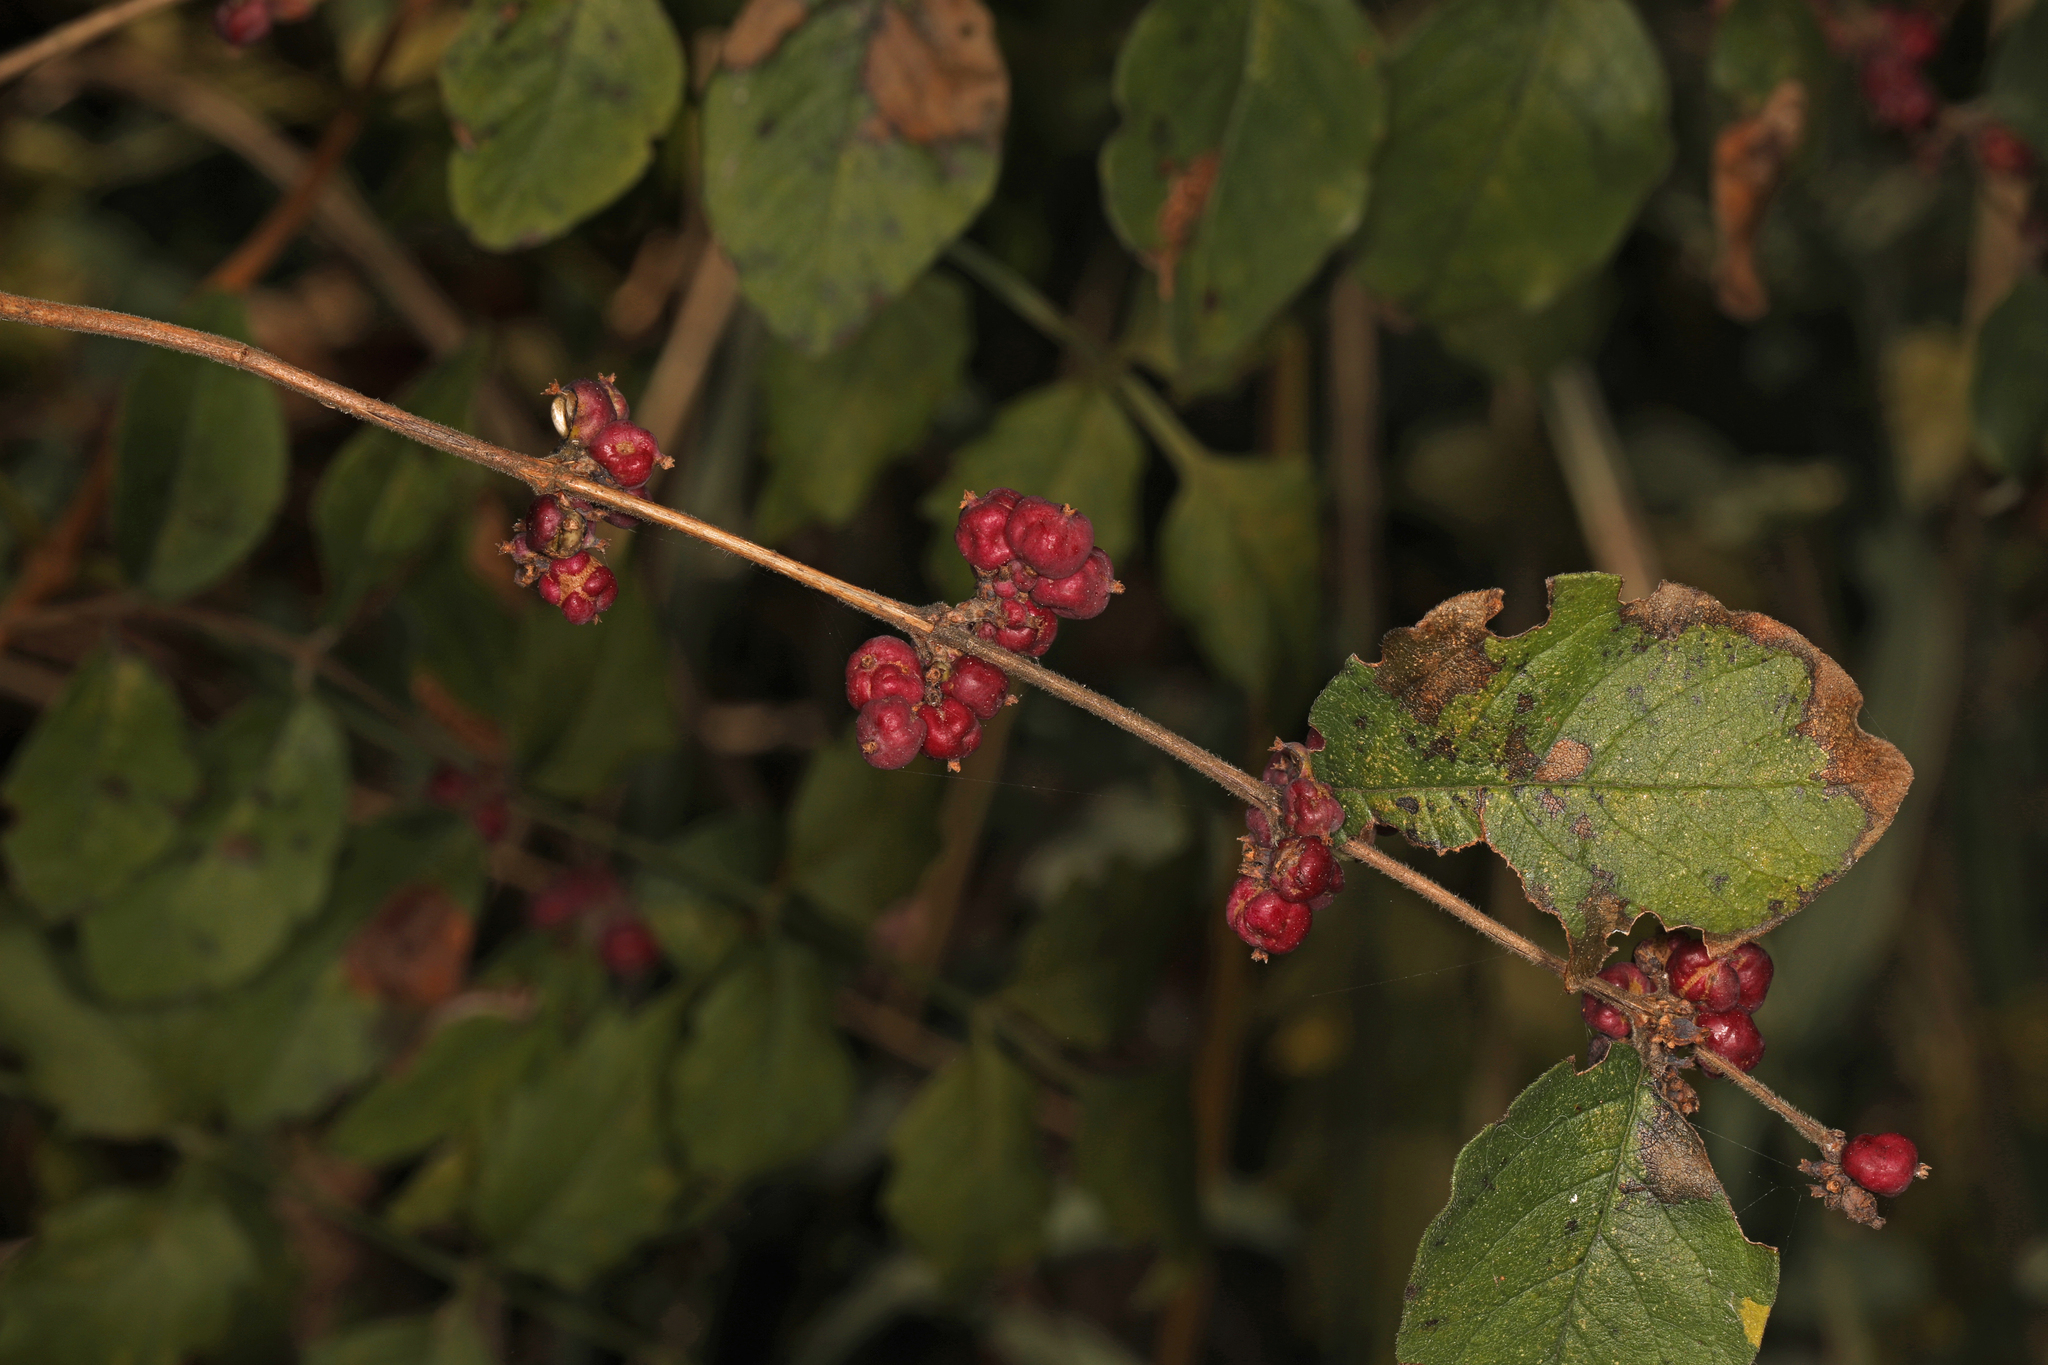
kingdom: Plantae
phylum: Tracheophyta
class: Magnoliopsida
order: Dipsacales
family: Caprifoliaceae
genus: Symphoricarpos
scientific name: Symphoricarpos orbiculatus
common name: Coralberry
